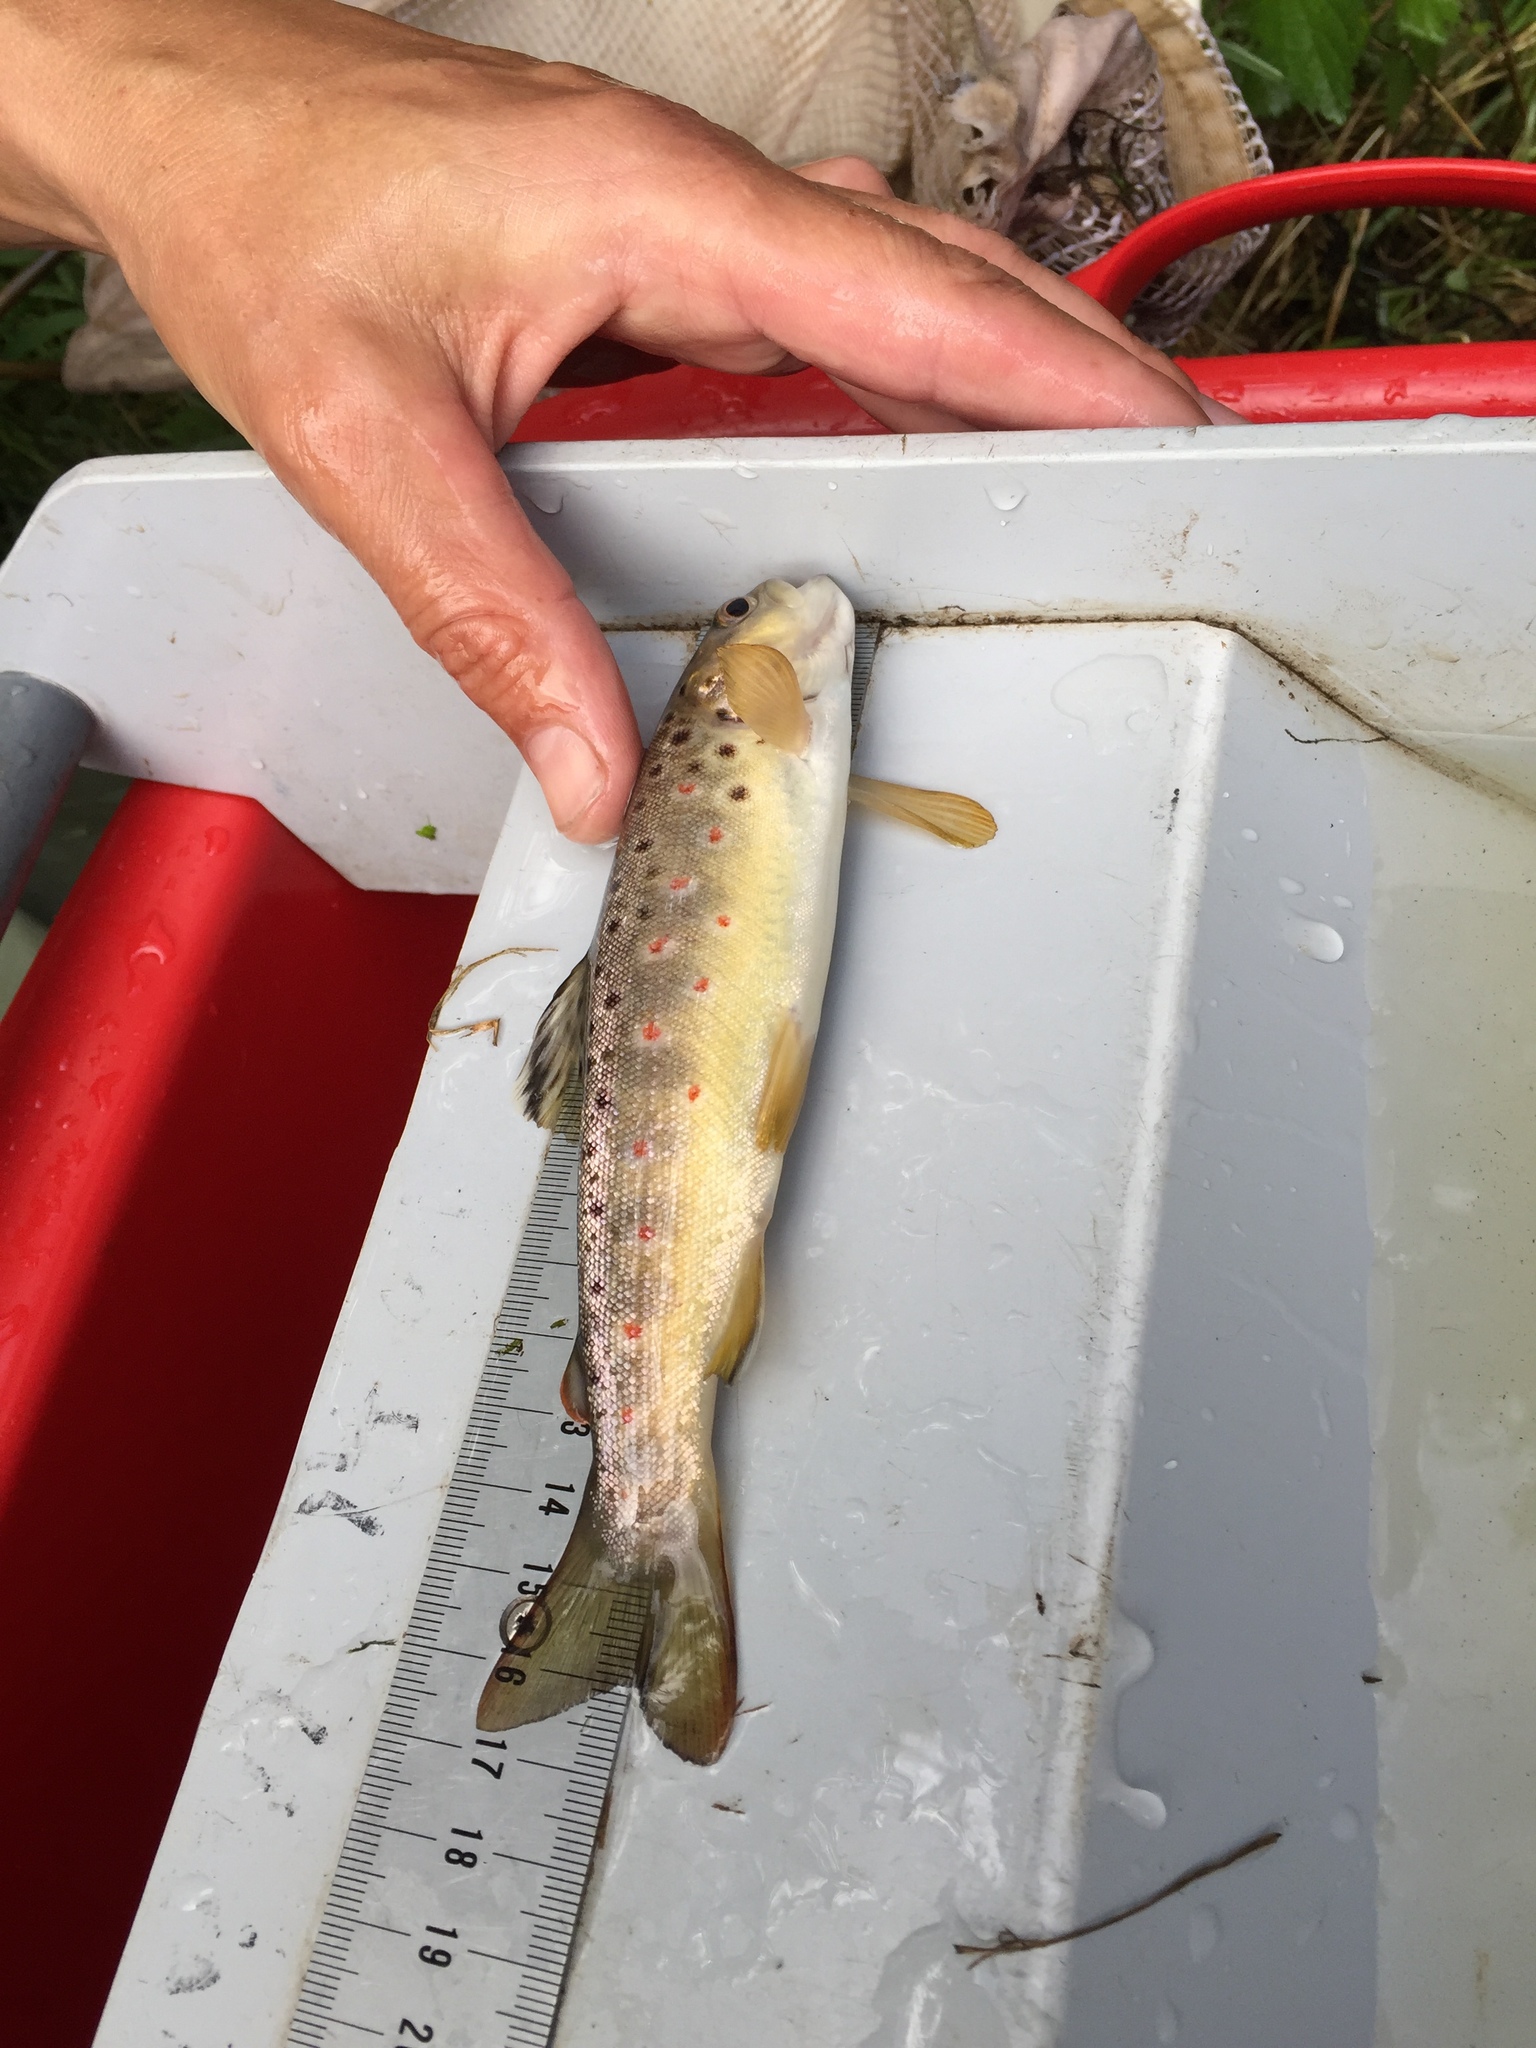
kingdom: Animalia
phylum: Chordata
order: Salmoniformes
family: Salmonidae
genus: Salmo
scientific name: Salmo trutta
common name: Brown trout
